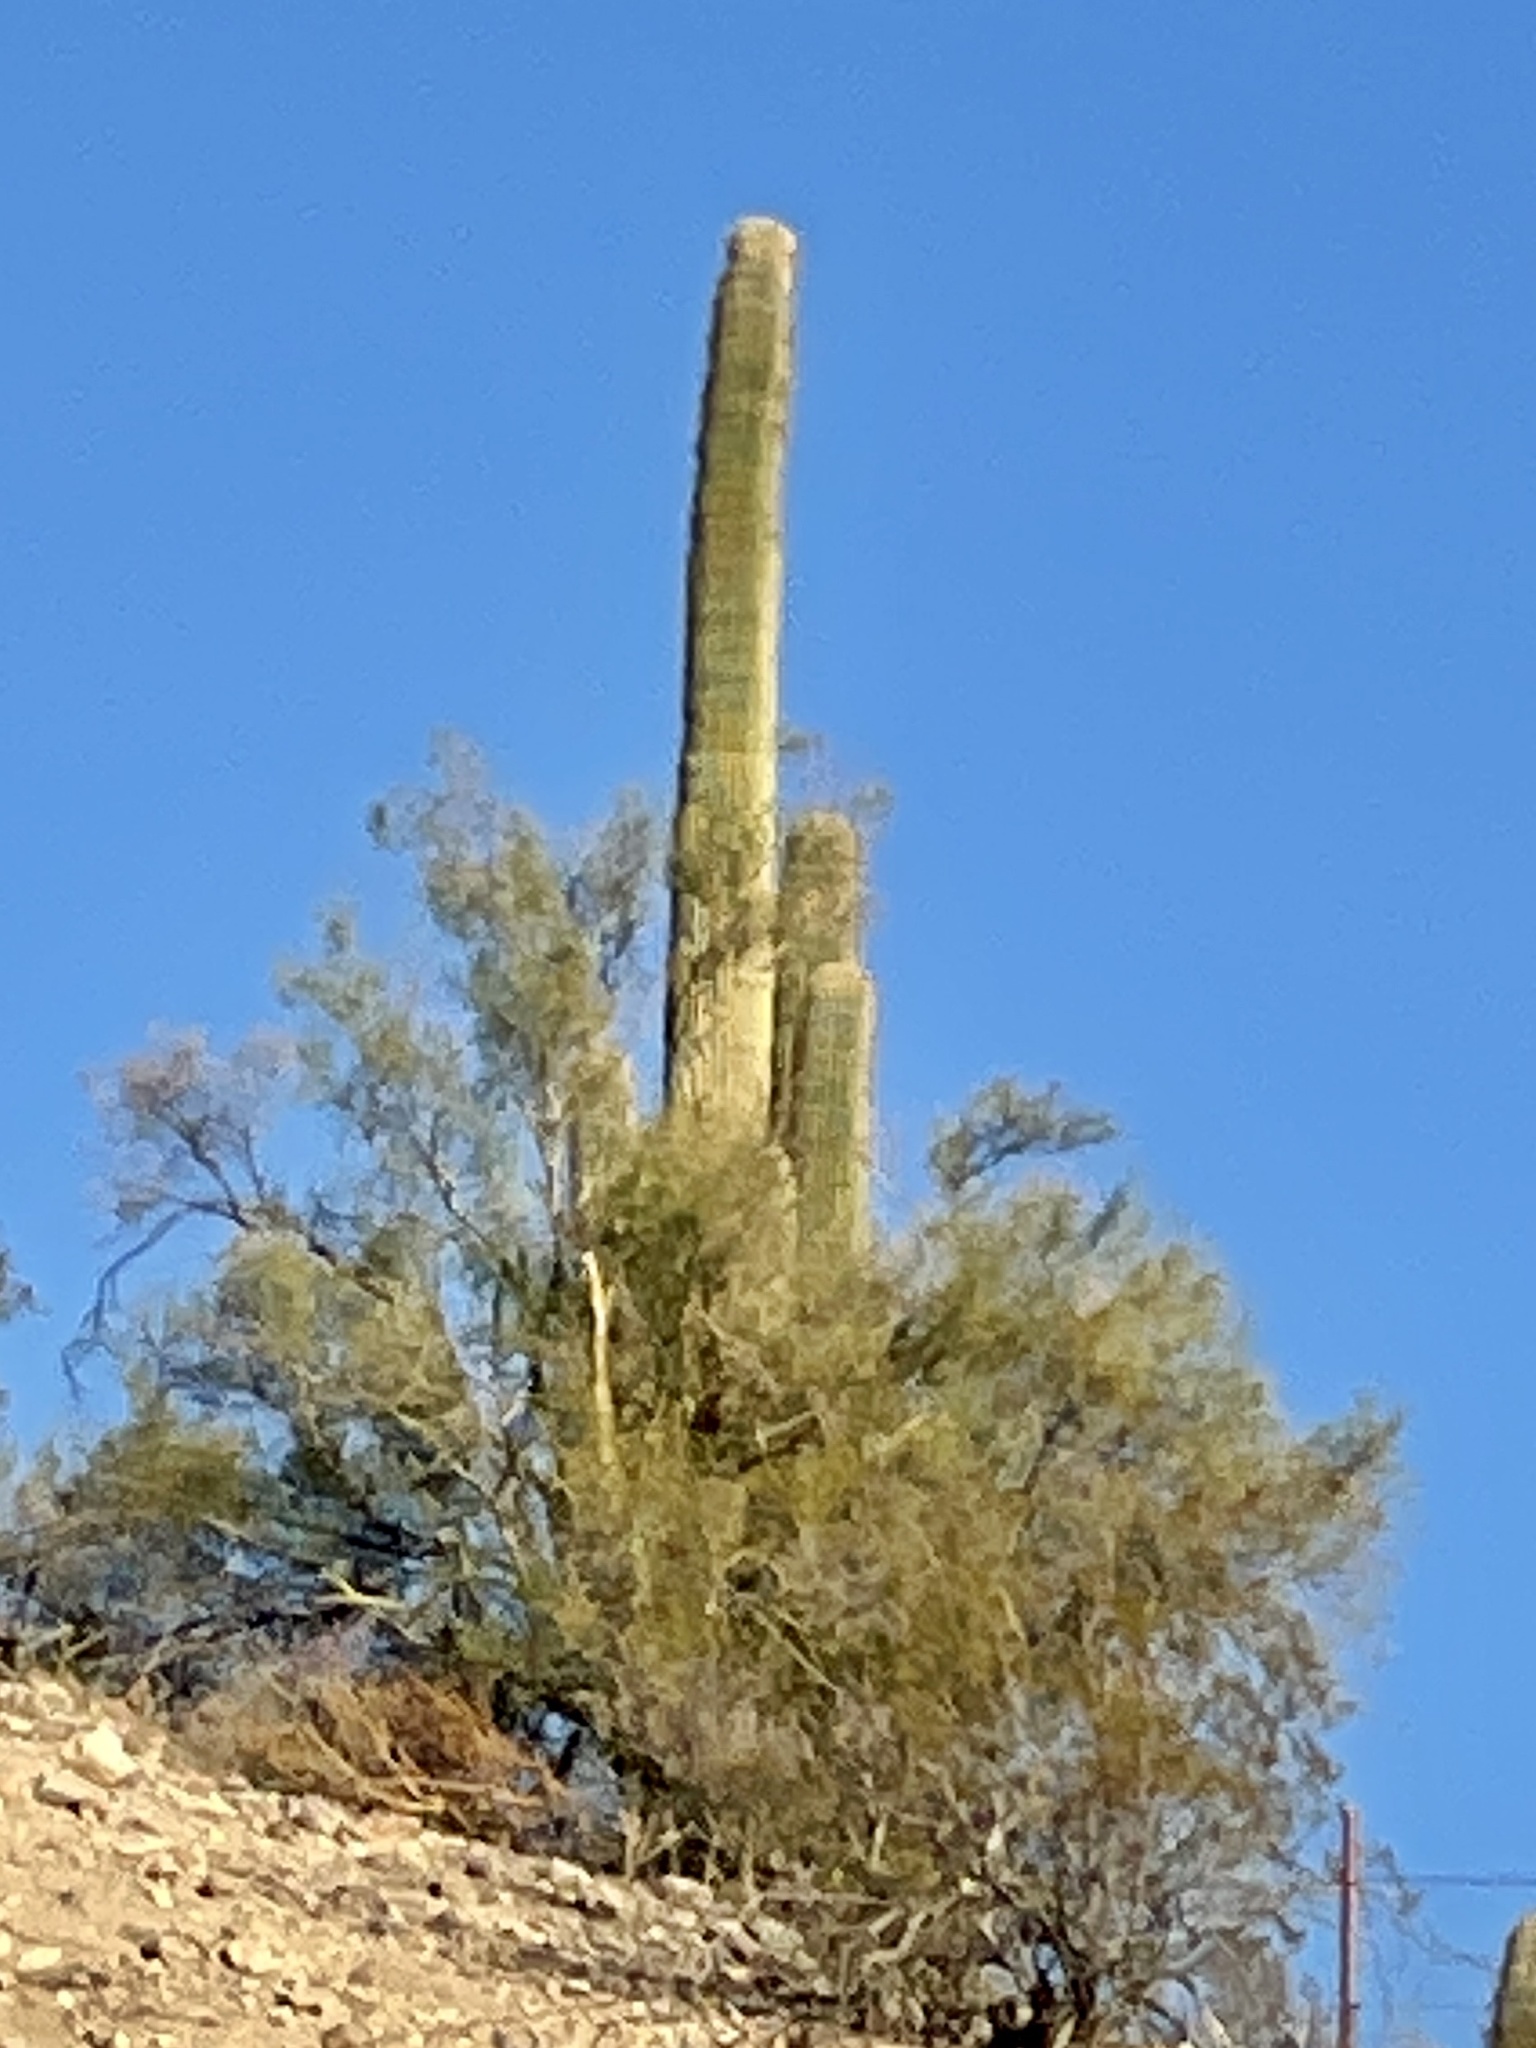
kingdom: Plantae
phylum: Tracheophyta
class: Magnoliopsida
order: Caryophyllales
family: Cactaceae
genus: Carnegiea
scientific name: Carnegiea gigantea
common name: Saguaro
